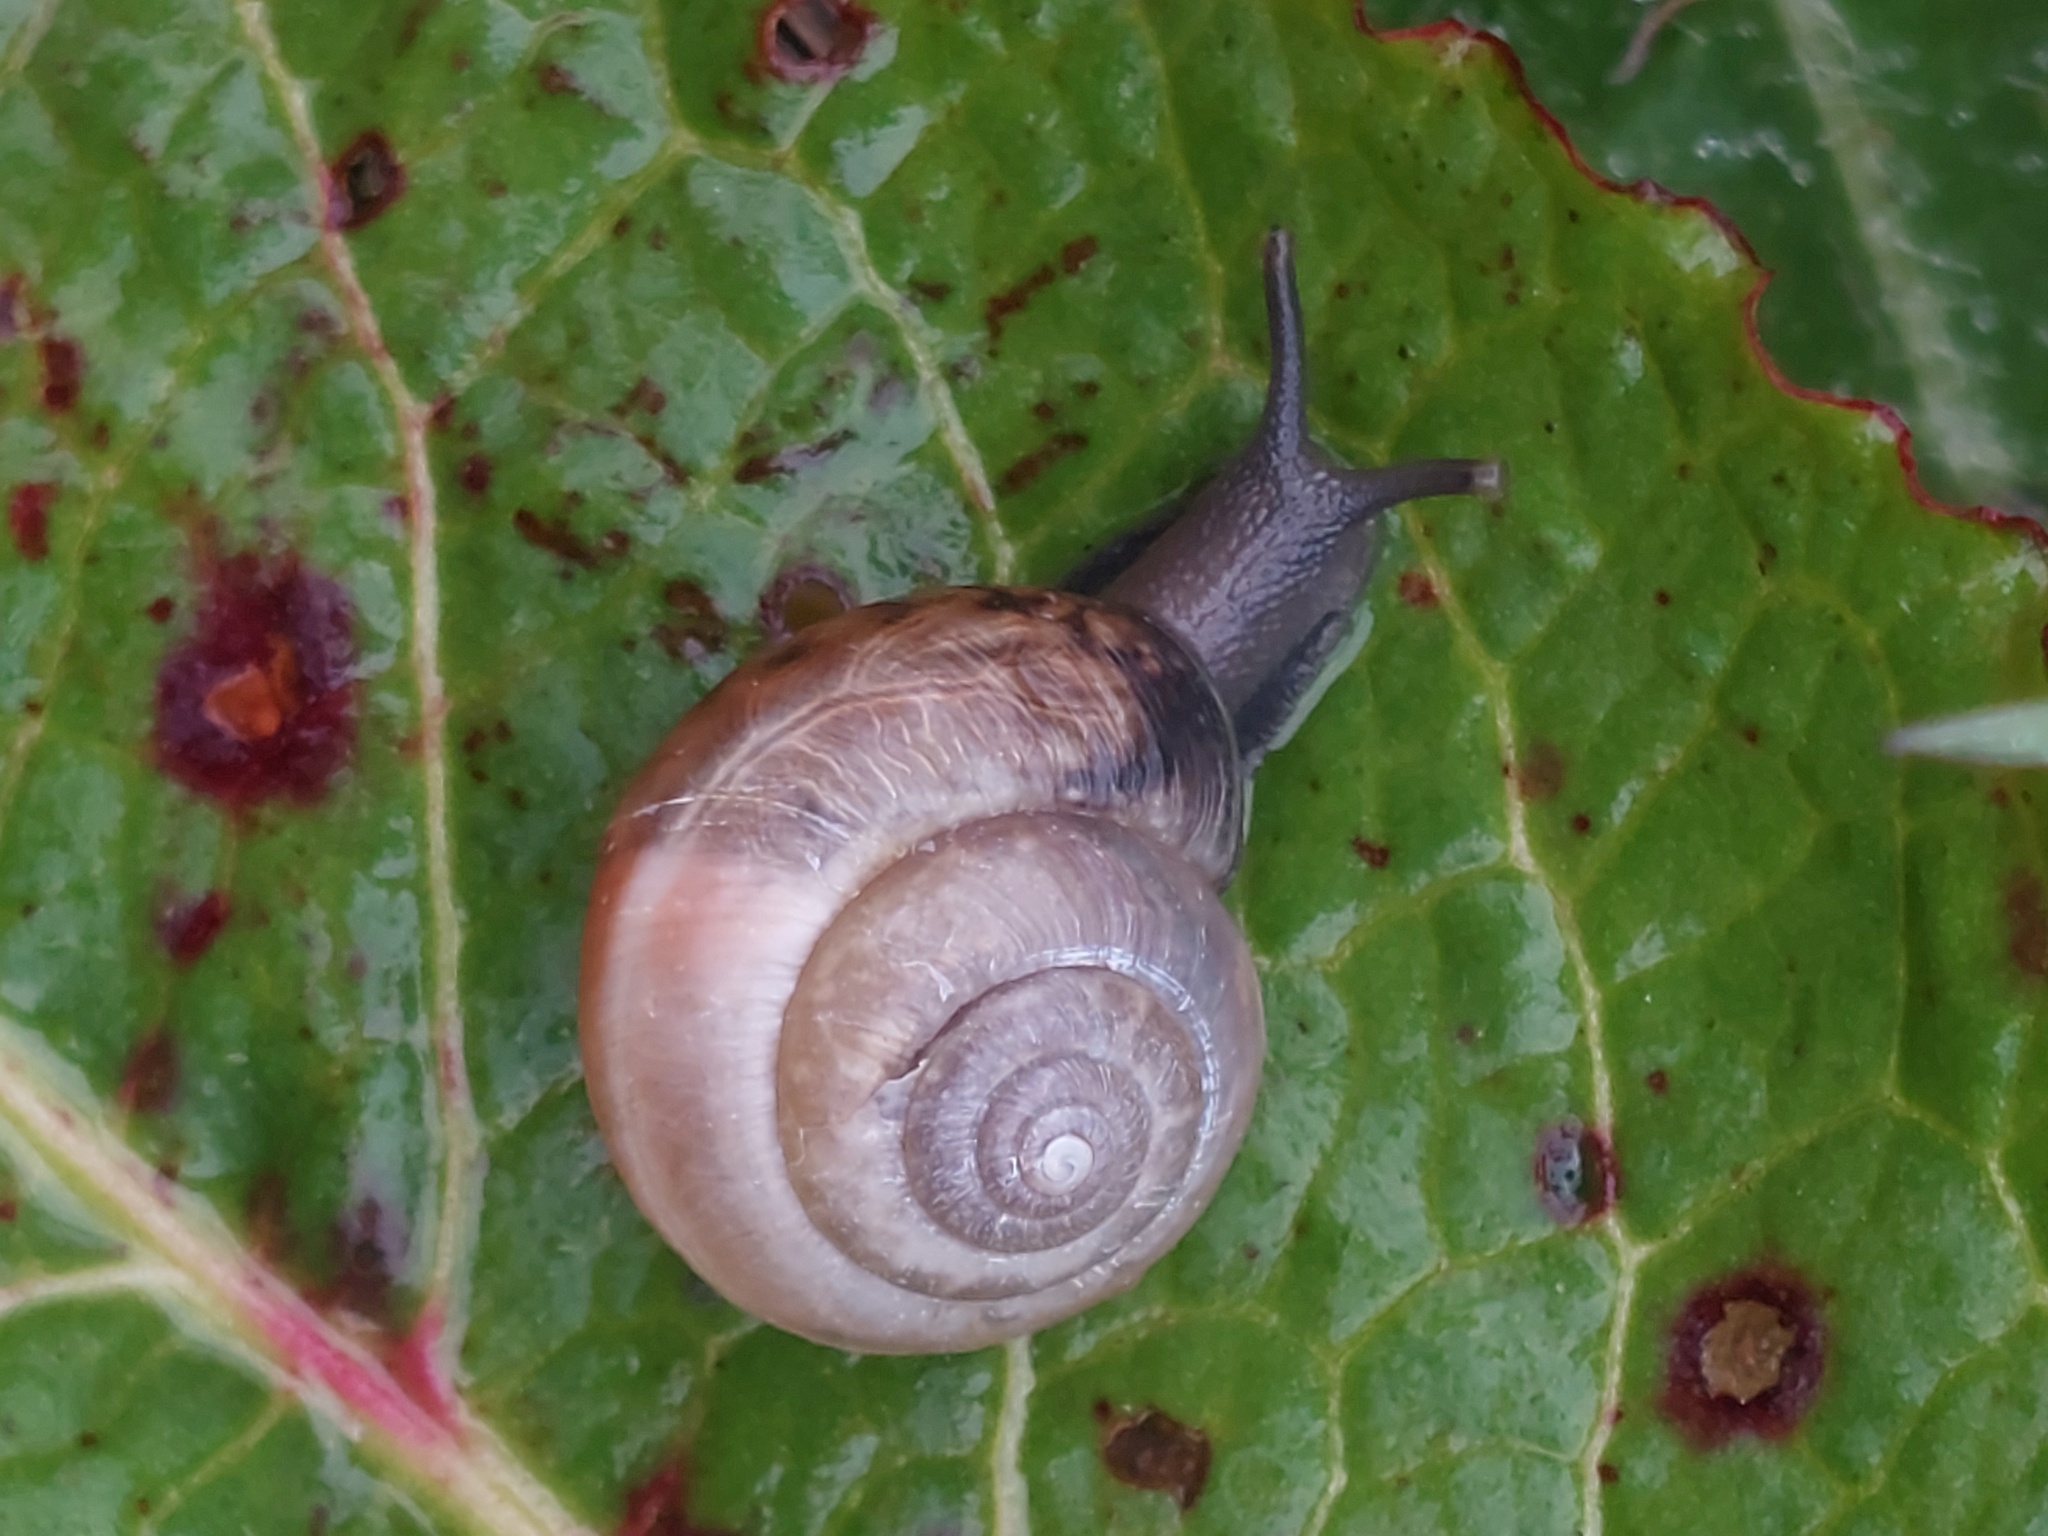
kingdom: Animalia
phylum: Mollusca
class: Gastropoda
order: Stylommatophora
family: Hygromiidae
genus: Monacha
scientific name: Monacha cantiana
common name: Kentish snail
